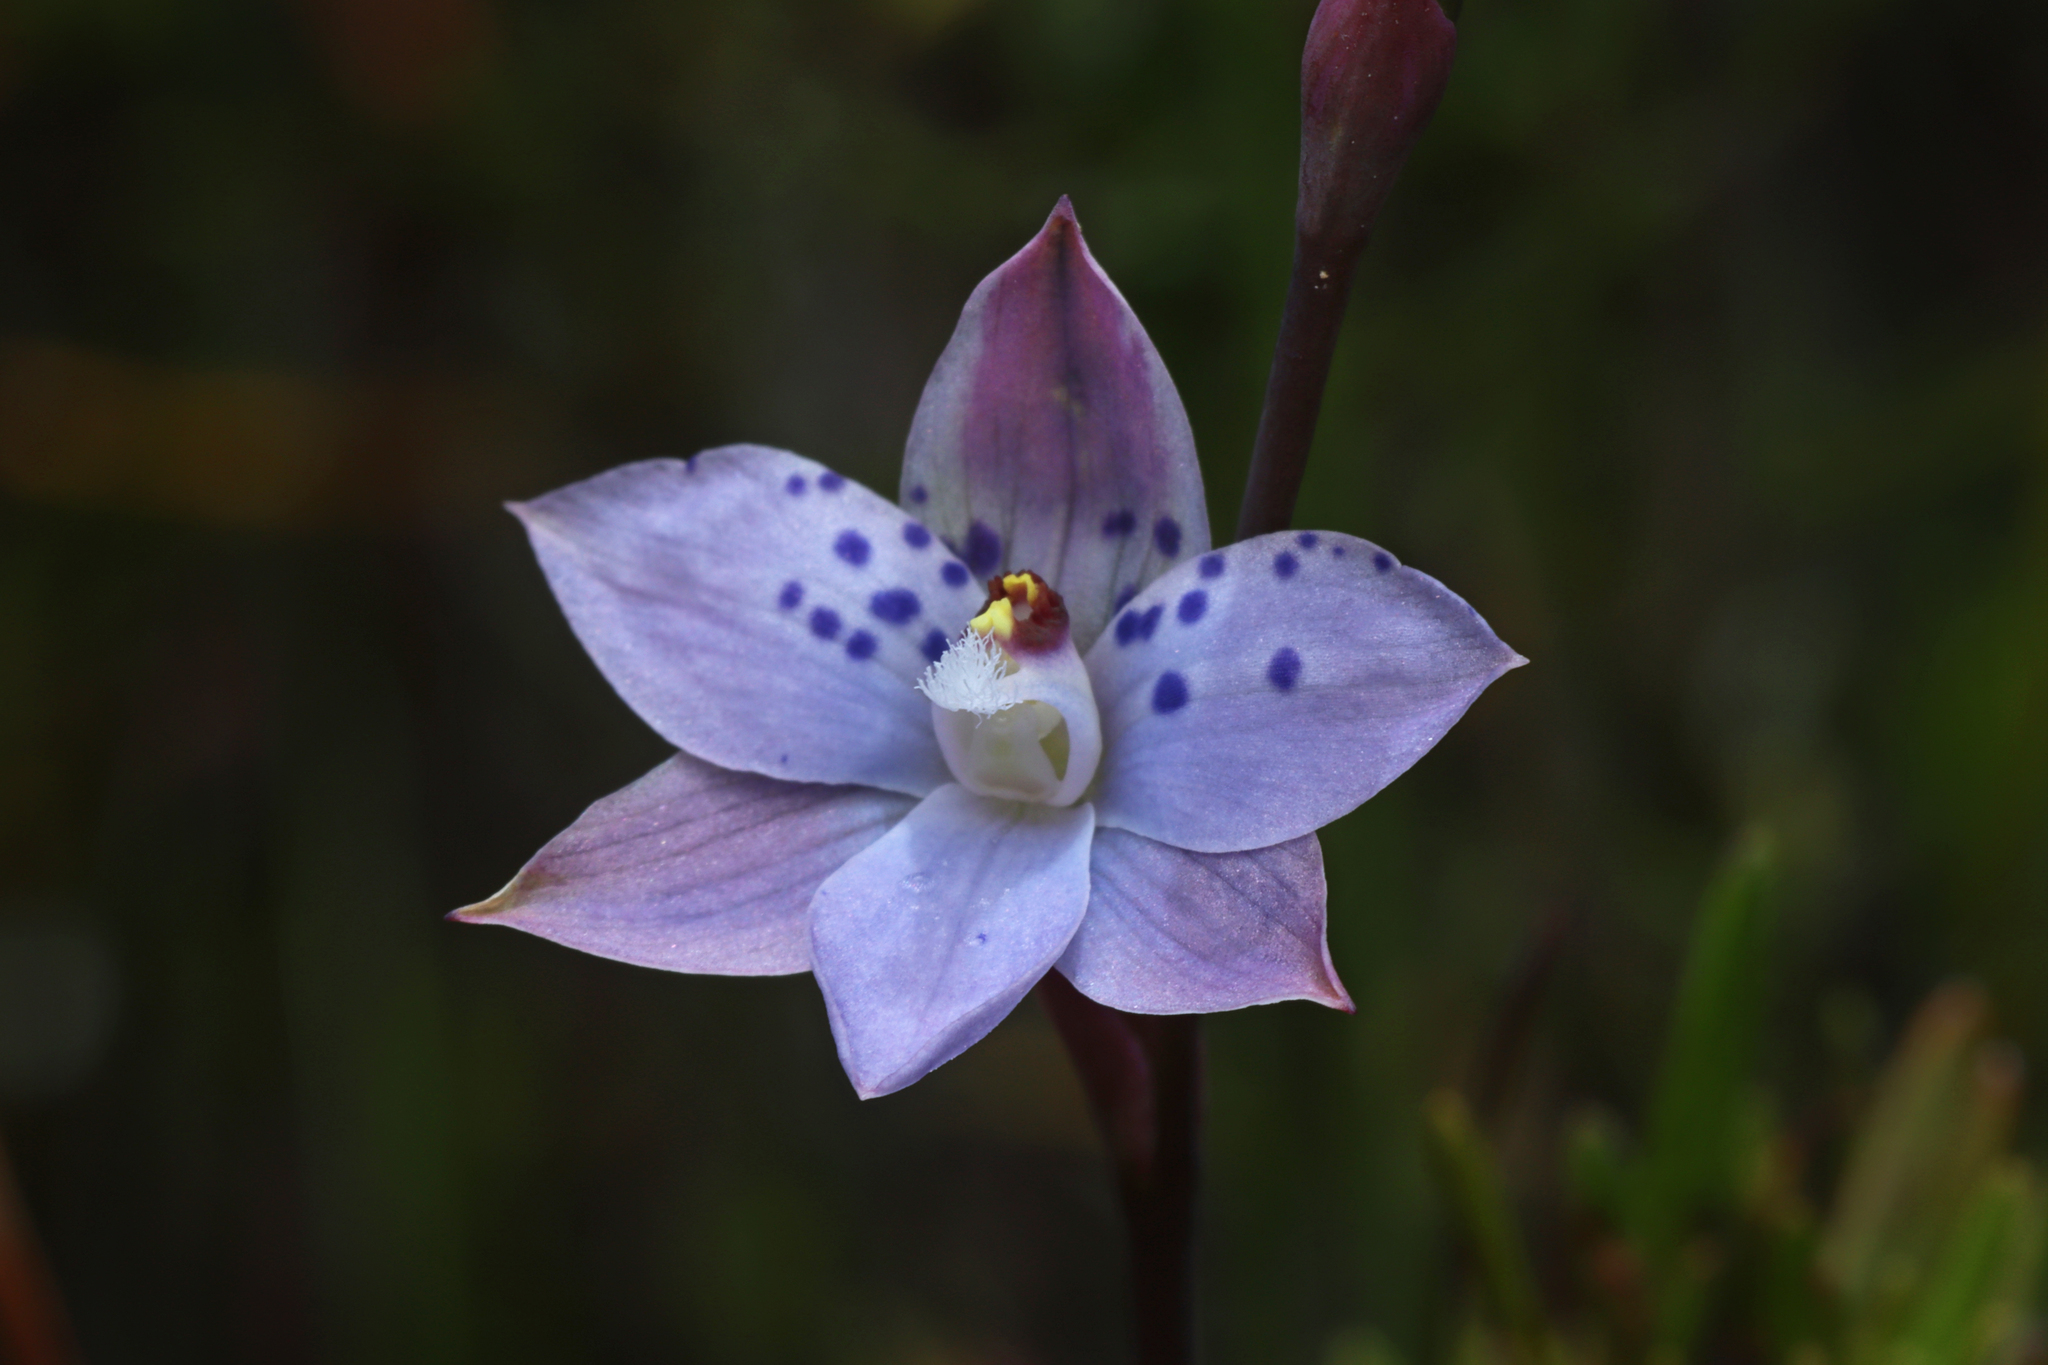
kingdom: Plantae
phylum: Tracheophyta
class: Liliopsida
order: Asparagales
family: Orchidaceae
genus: Thelymitra
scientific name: Thelymitra juncifolia
